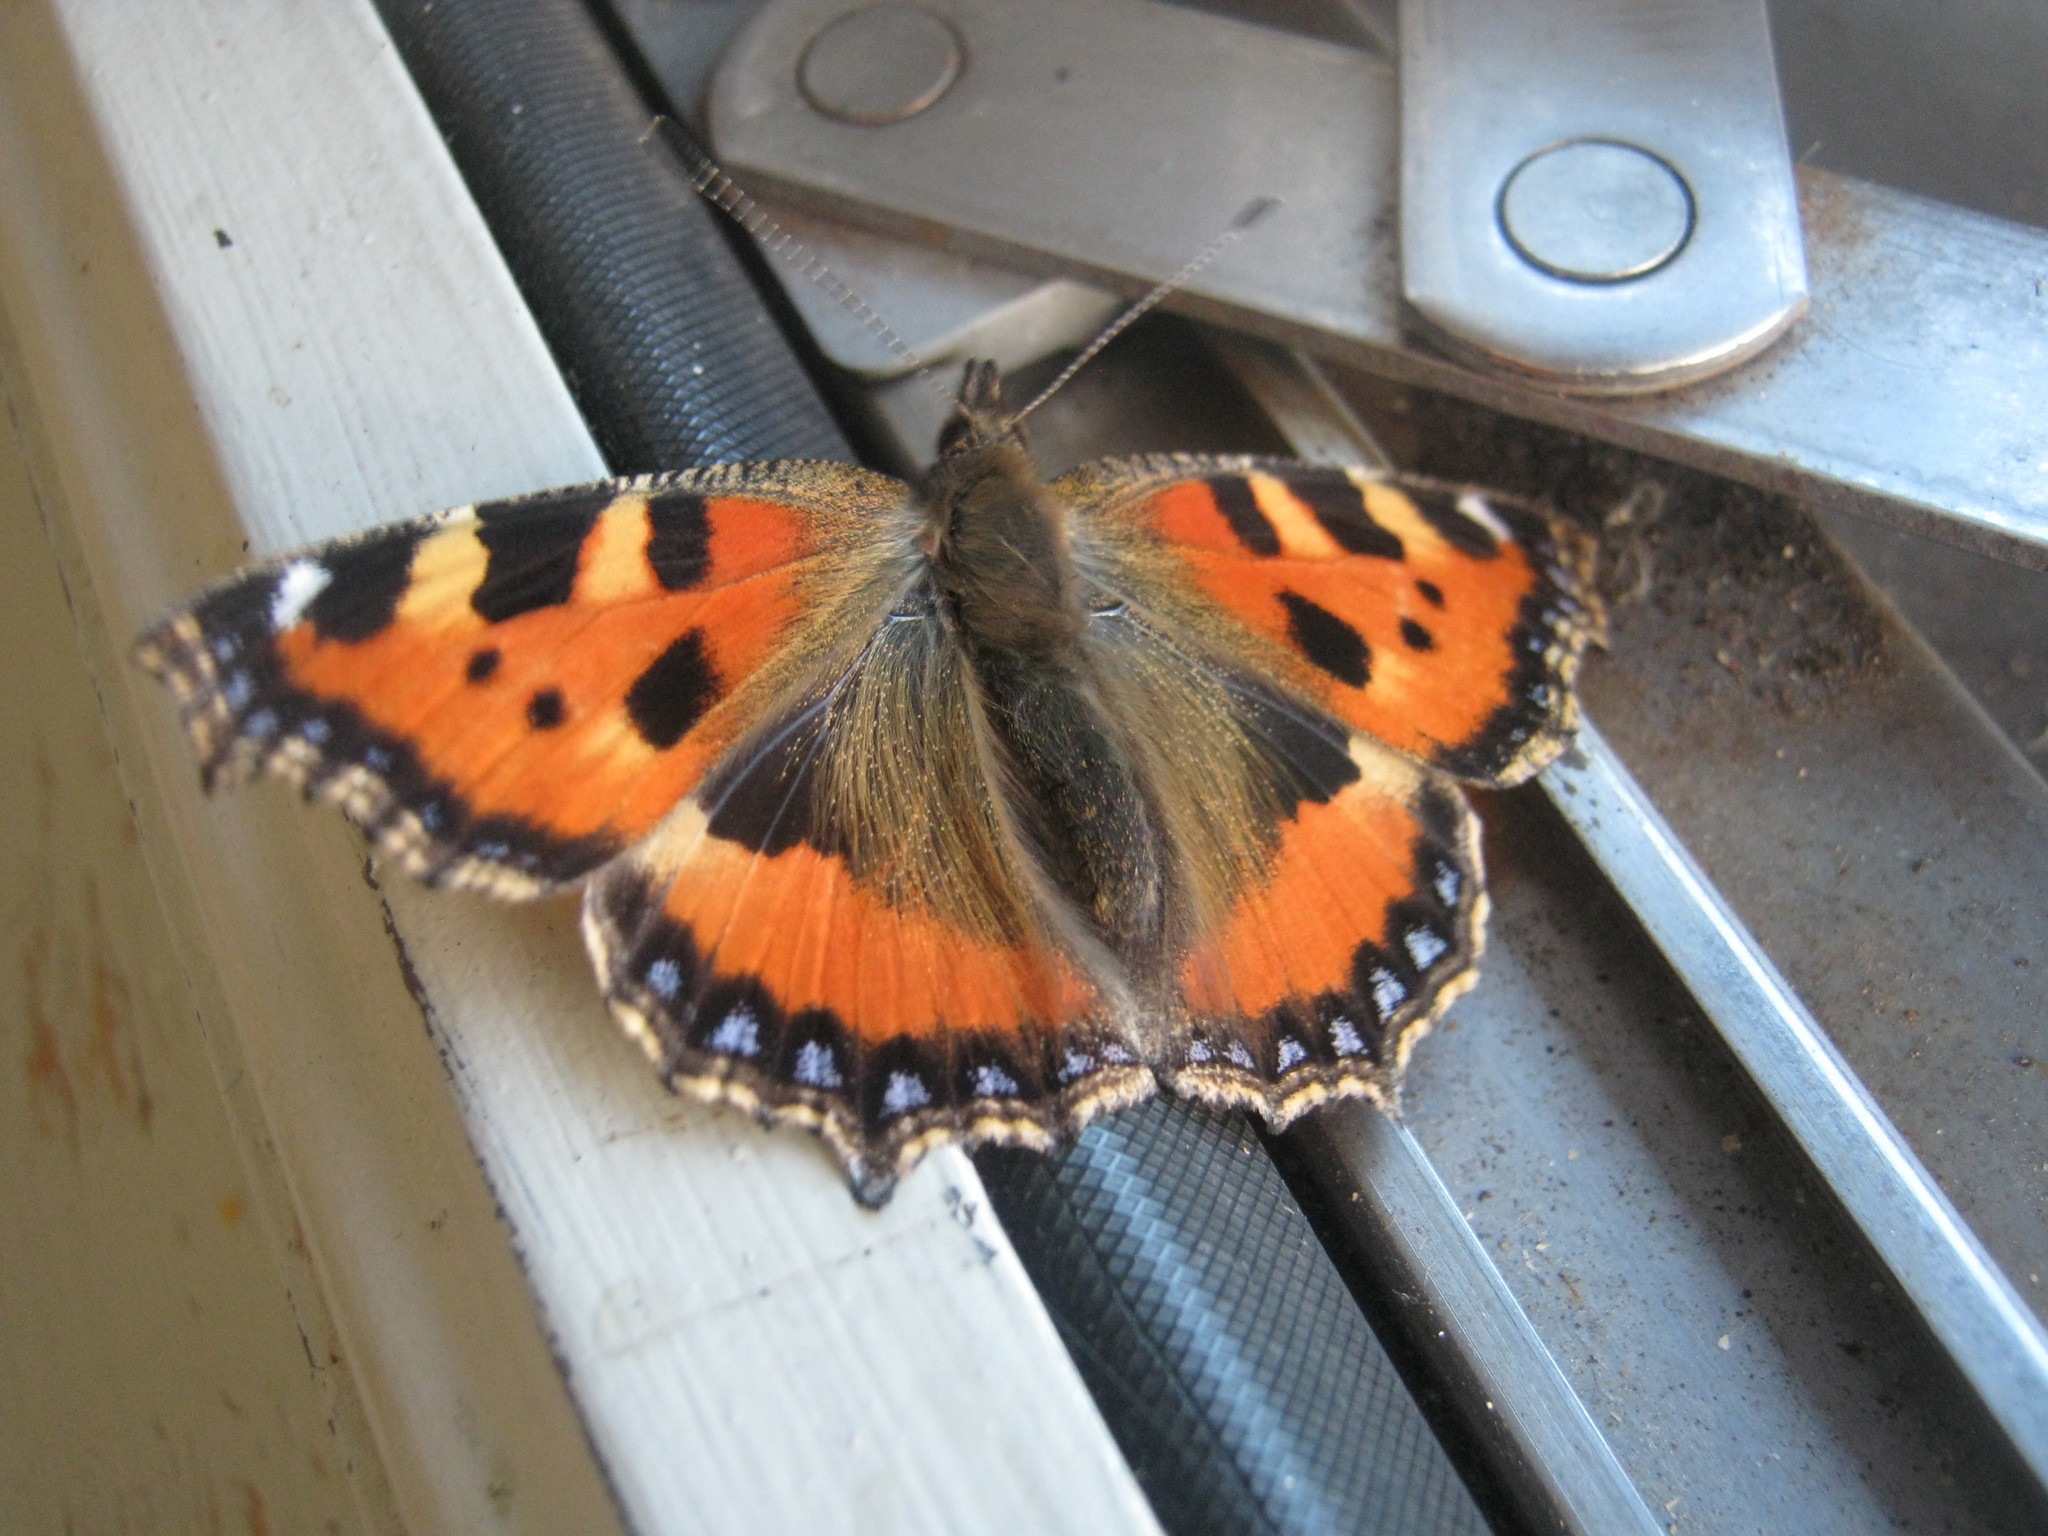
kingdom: Animalia
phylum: Arthropoda
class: Insecta
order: Lepidoptera
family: Nymphalidae
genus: Aglais
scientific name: Aglais urticae
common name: Small tortoiseshell
